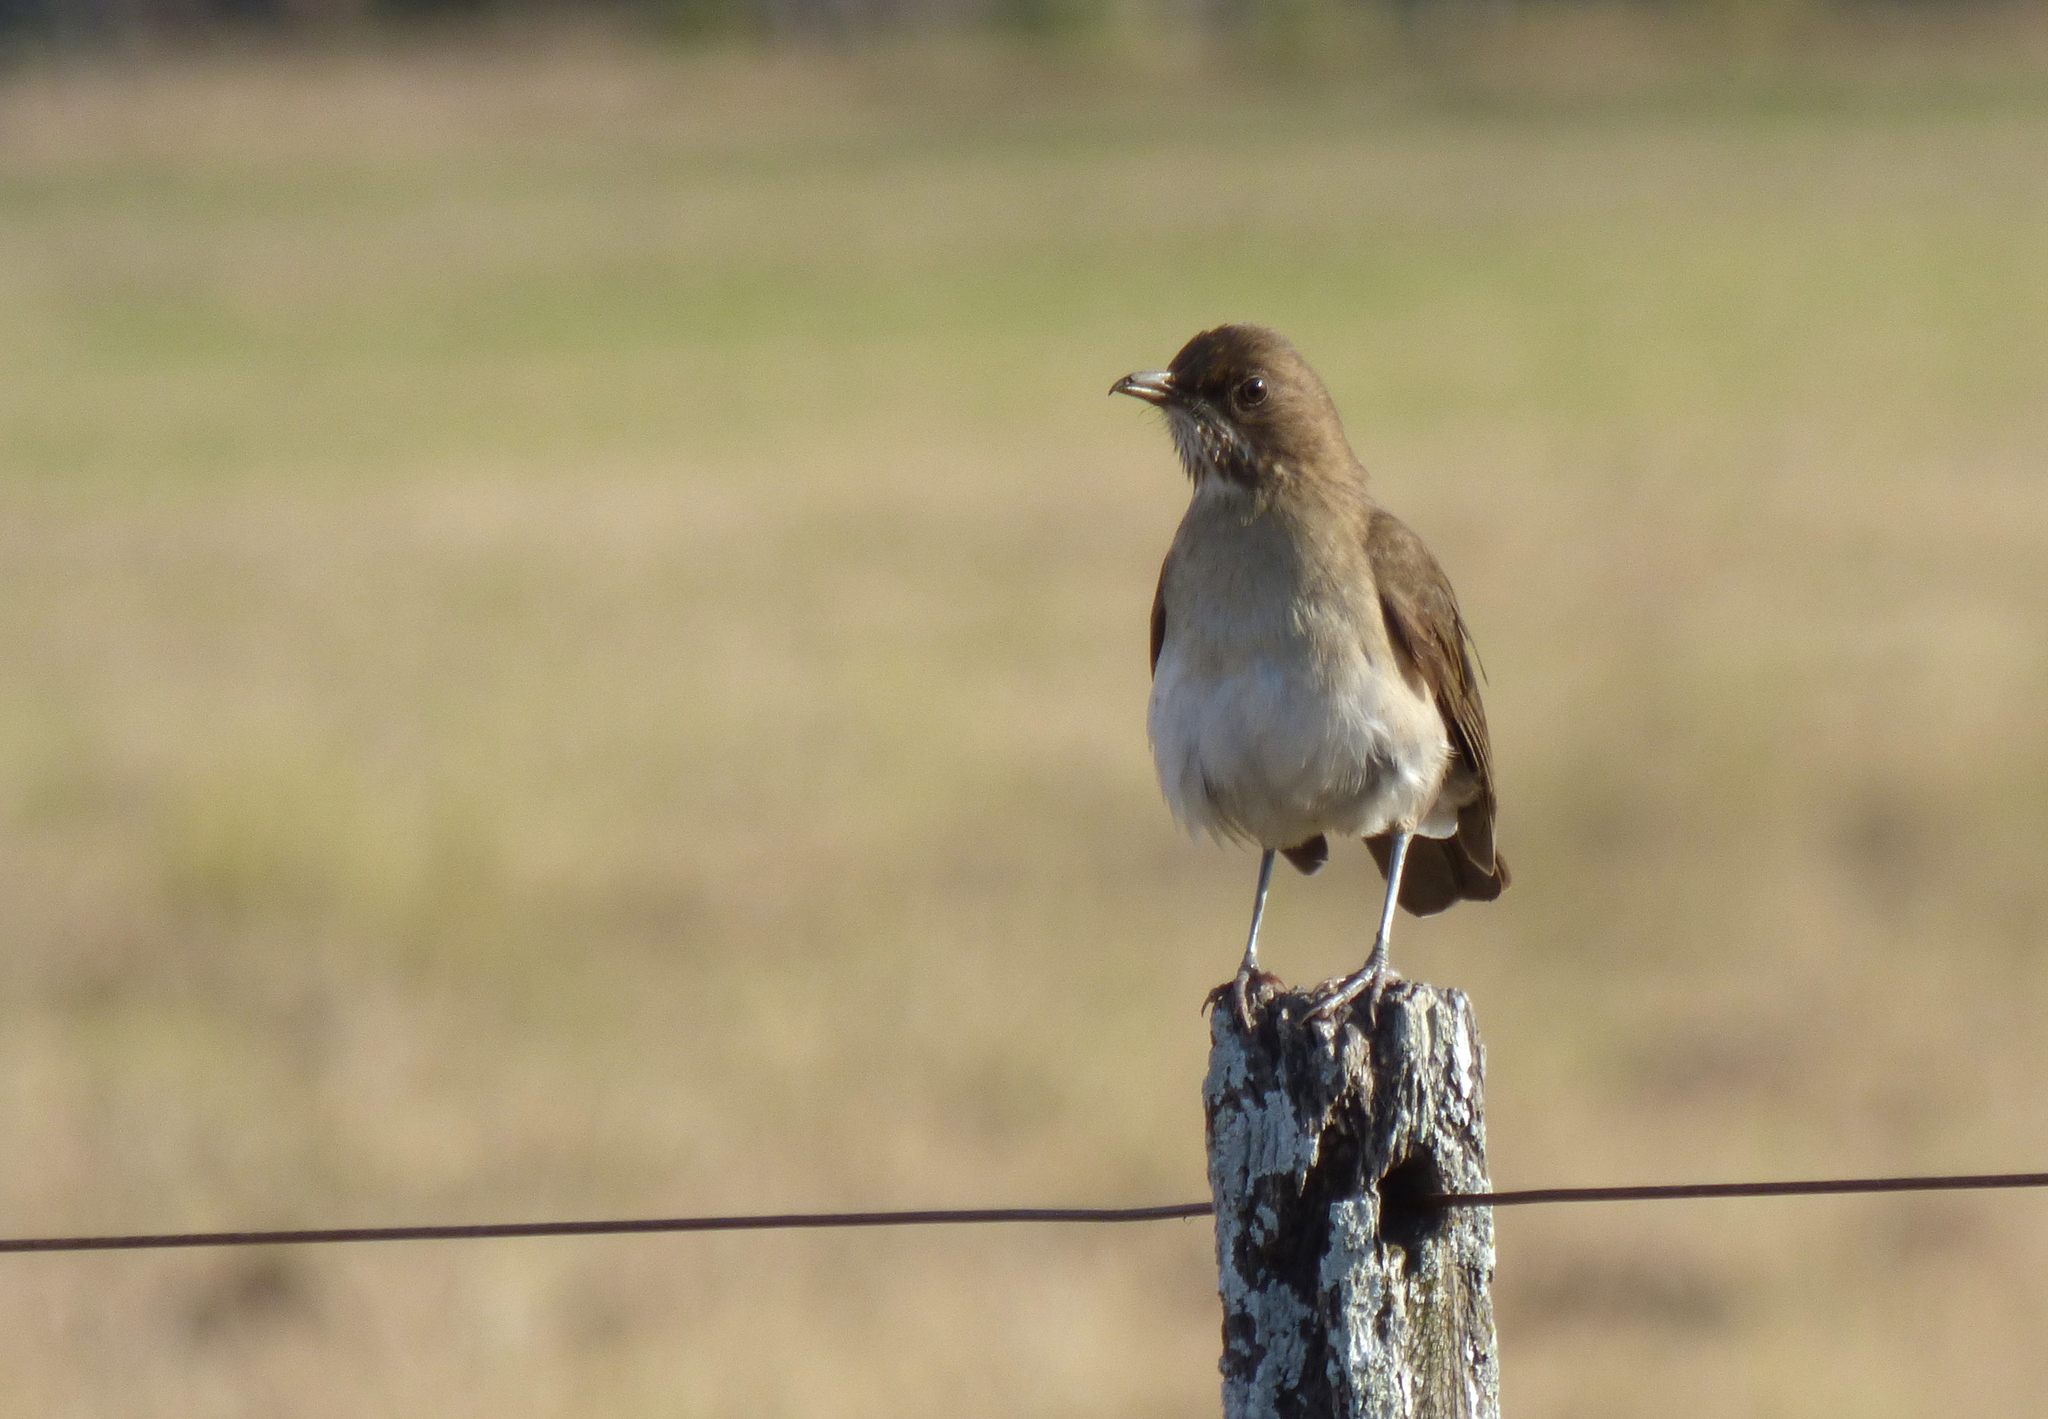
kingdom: Animalia
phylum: Chordata
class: Aves
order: Passeriformes
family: Turdidae
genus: Turdus
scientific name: Turdus amaurochalinus
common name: Creamy-bellied thrush
